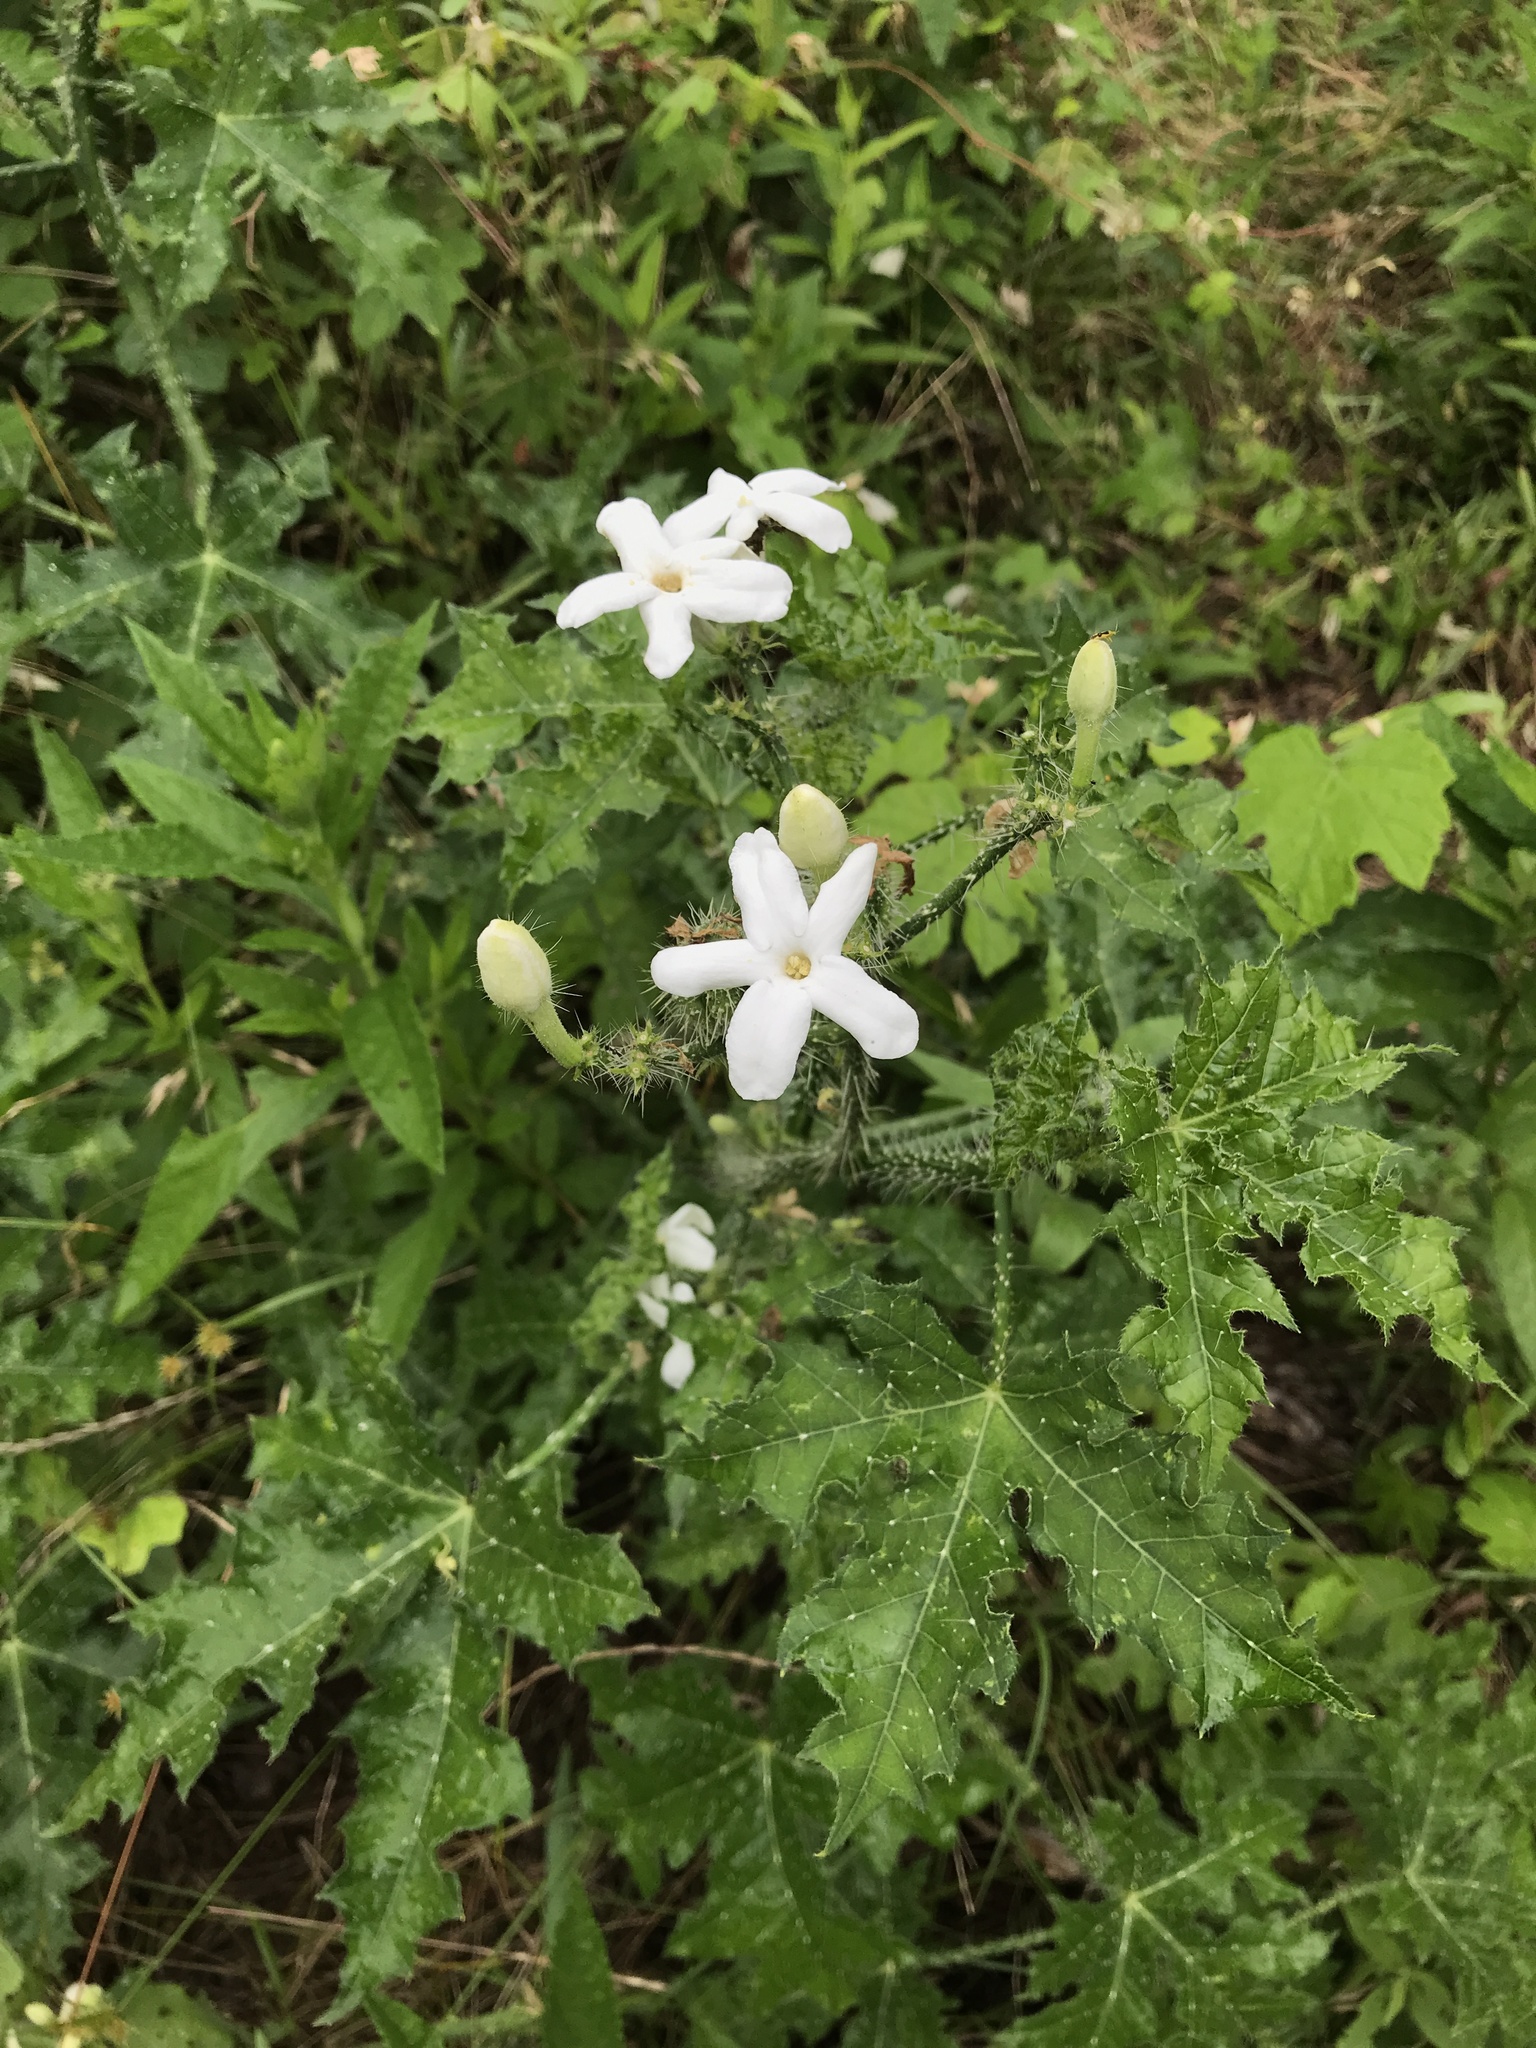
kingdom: Plantae
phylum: Tracheophyta
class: Magnoliopsida
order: Malpighiales
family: Euphorbiaceae
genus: Cnidoscolus
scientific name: Cnidoscolus texanus
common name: Texas bull-nettle
